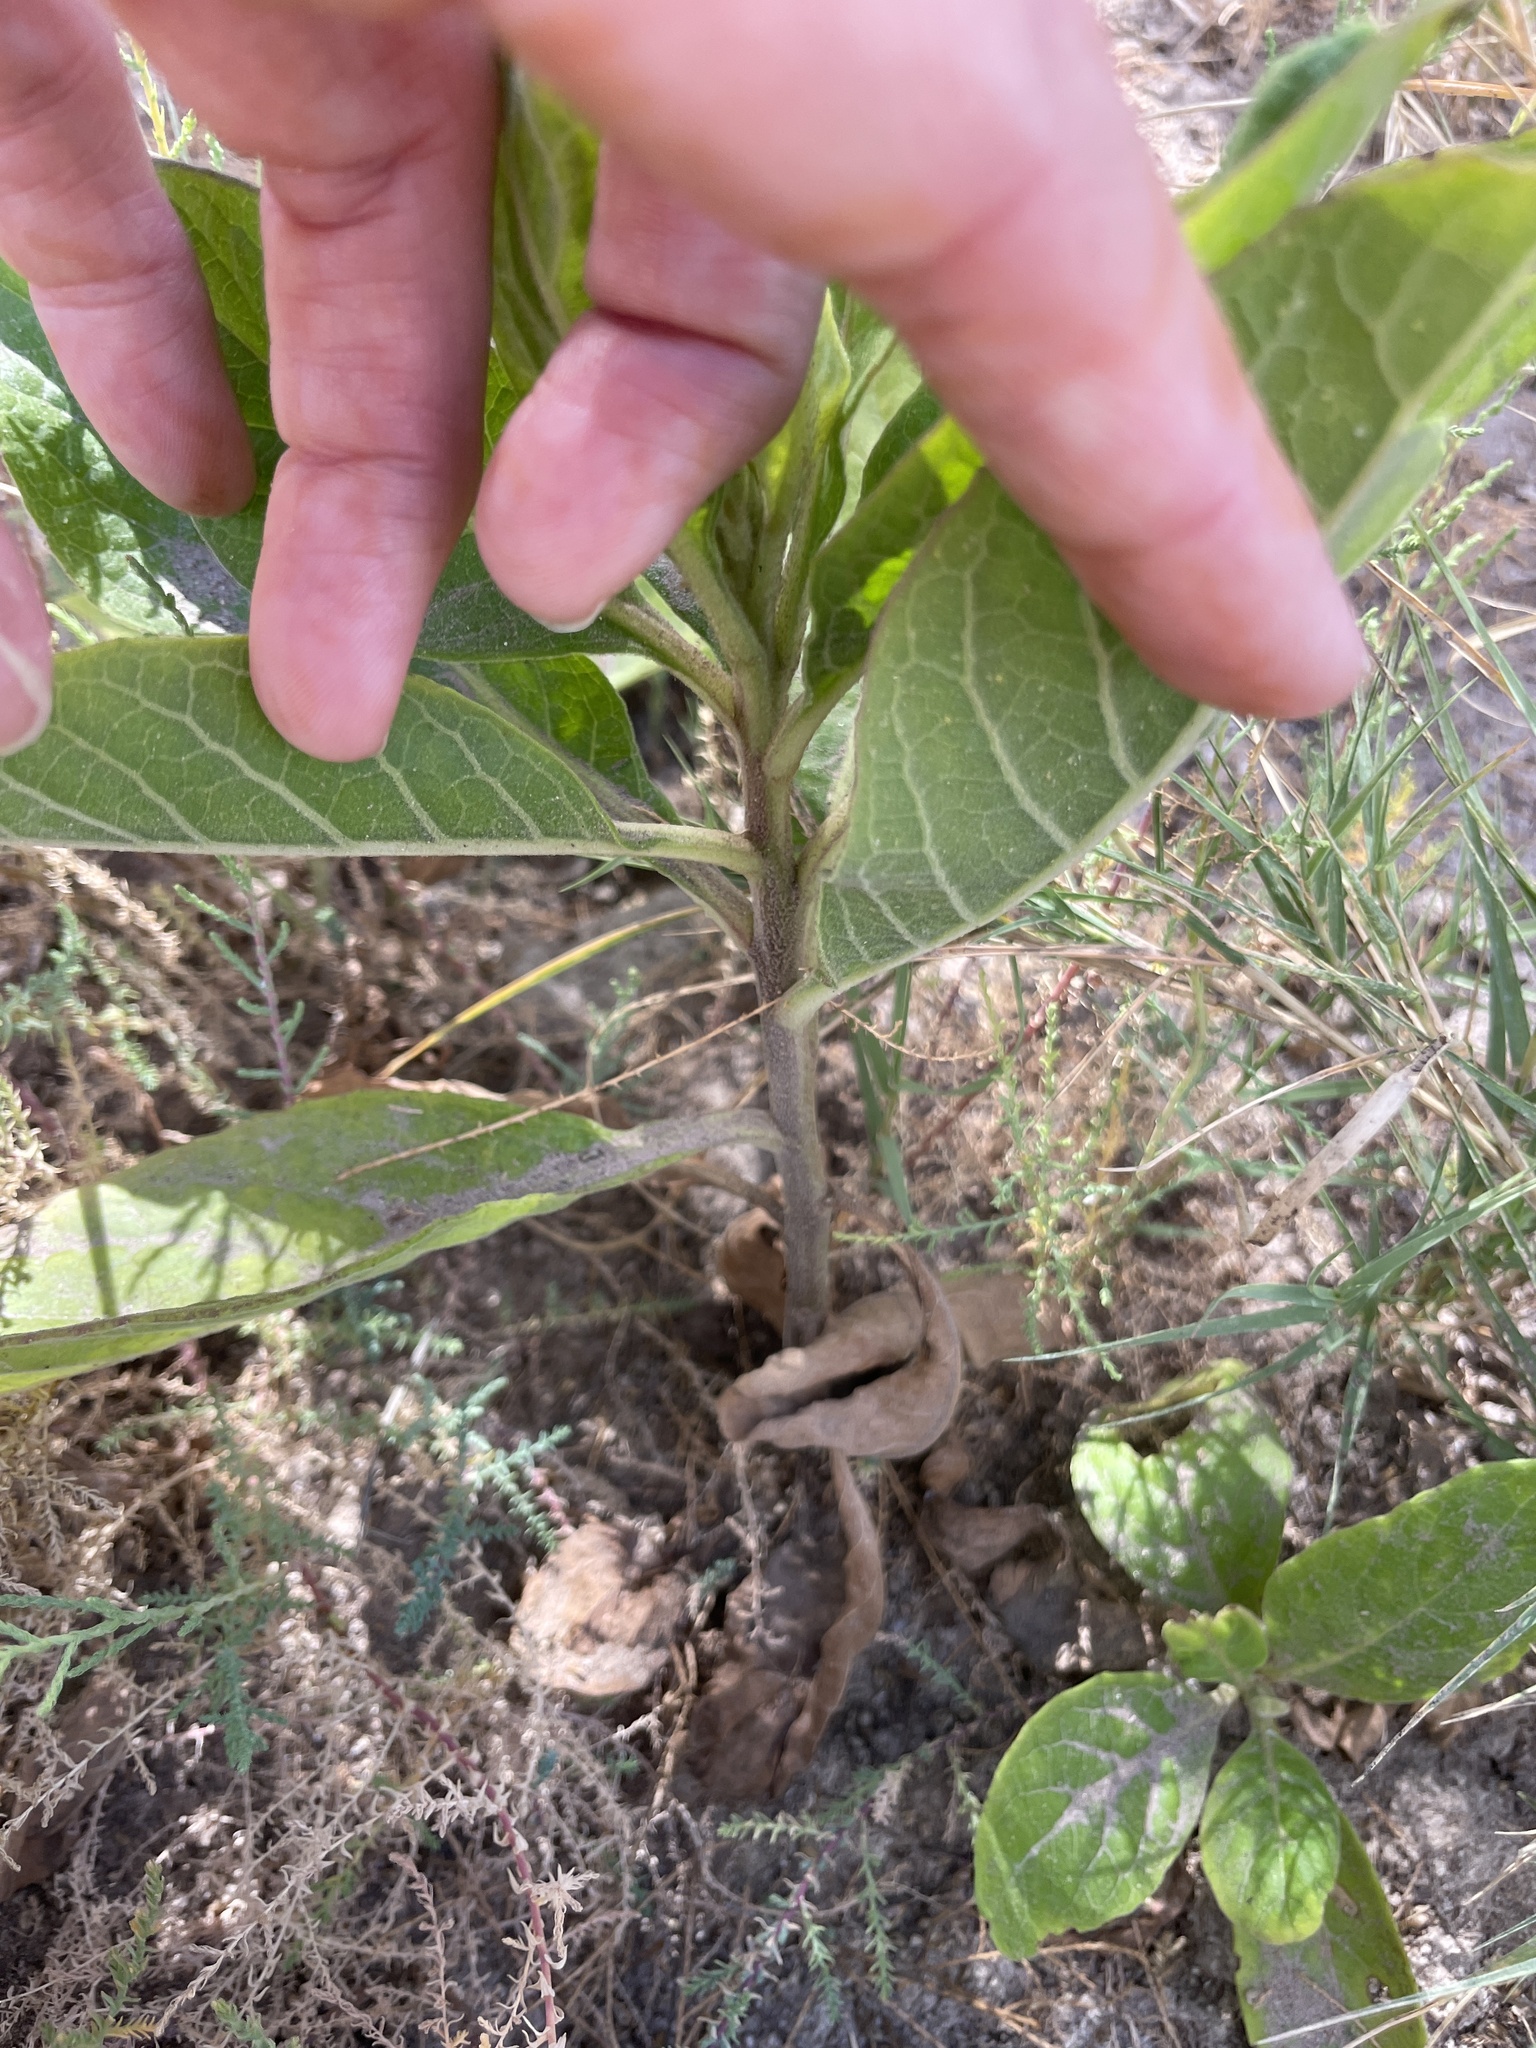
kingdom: Plantae
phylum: Tracheophyta
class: Magnoliopsida
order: Asterales
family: Asteraceae
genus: Pluchea
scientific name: Pluchea carolinensis
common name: Marsh fleabane
